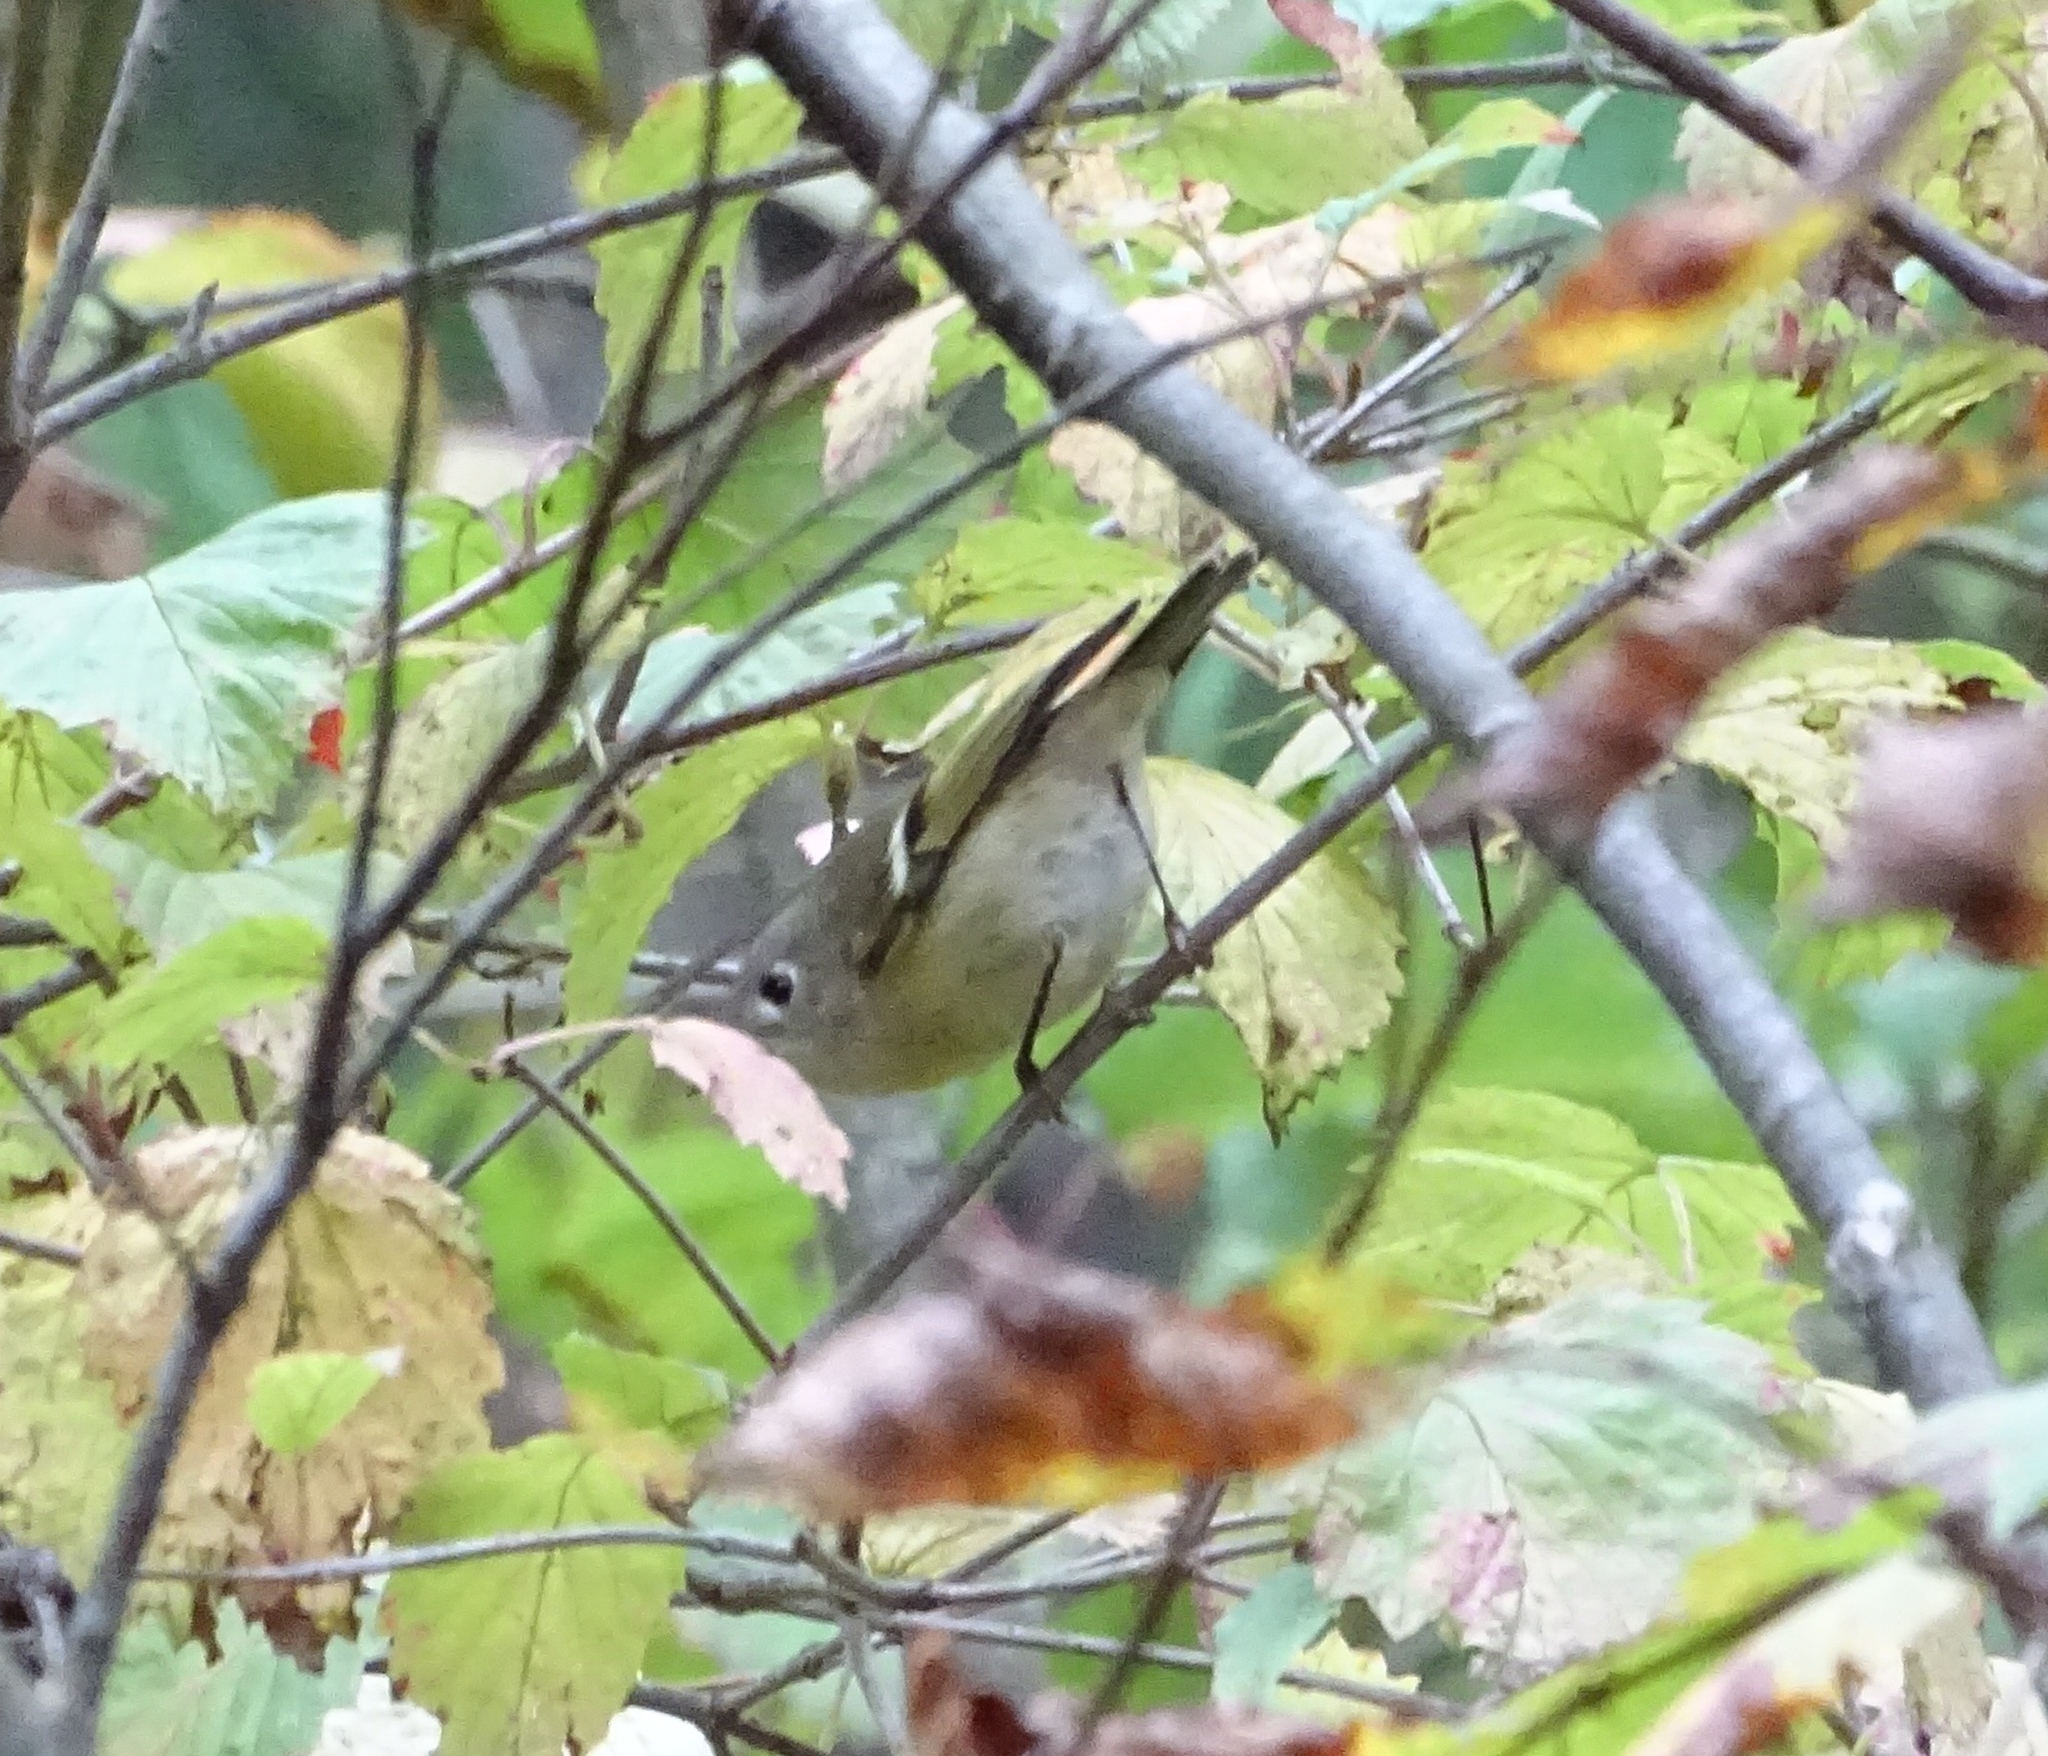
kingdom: Animalia
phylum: Chordata
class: Aves
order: Passeriformes
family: Regulidae
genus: Regulus
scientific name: Regulus calendula
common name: Ruby-crowned kinglet
